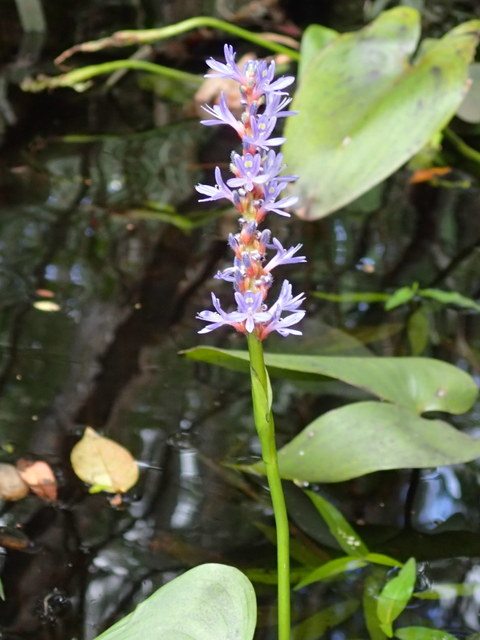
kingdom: Plantae
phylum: Tracheophyta
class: Liliopsida
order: Commelinales
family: Pontederiaceae
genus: Pontederia
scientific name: Pontederia cordata
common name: Pickerelweed
